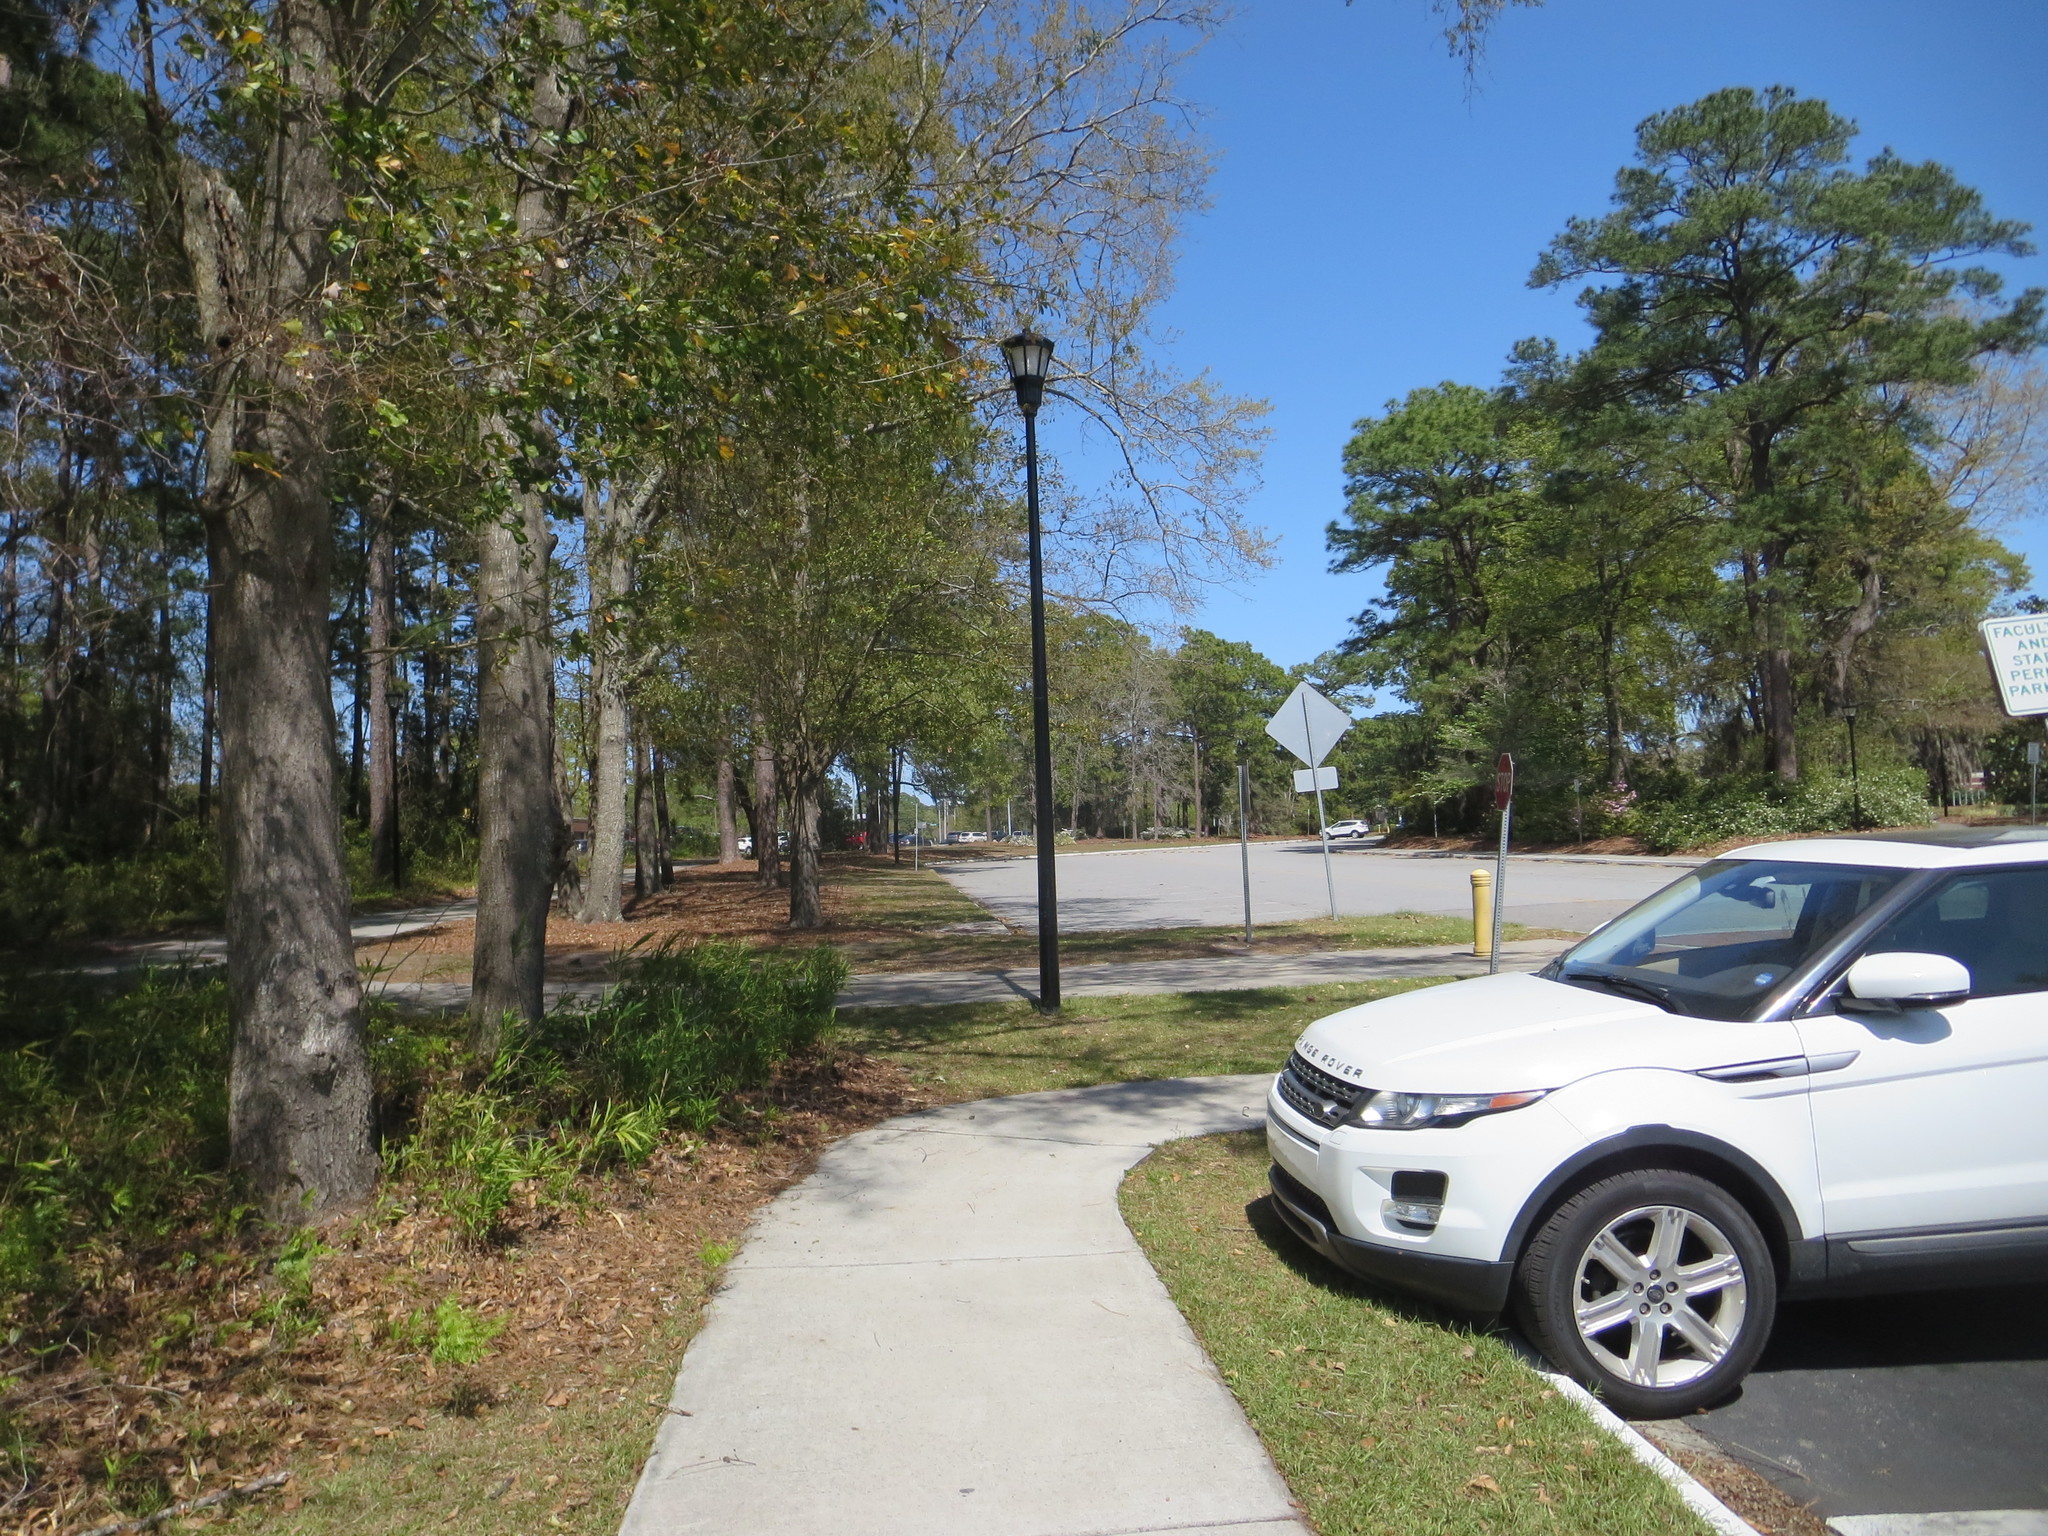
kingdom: Plantae
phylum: Tracheophyta
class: Magnoliopsida
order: Santalales
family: Viscaceae
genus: Phoradendron
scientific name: Phoradendron leucarpum
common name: Pacific mistletoe
